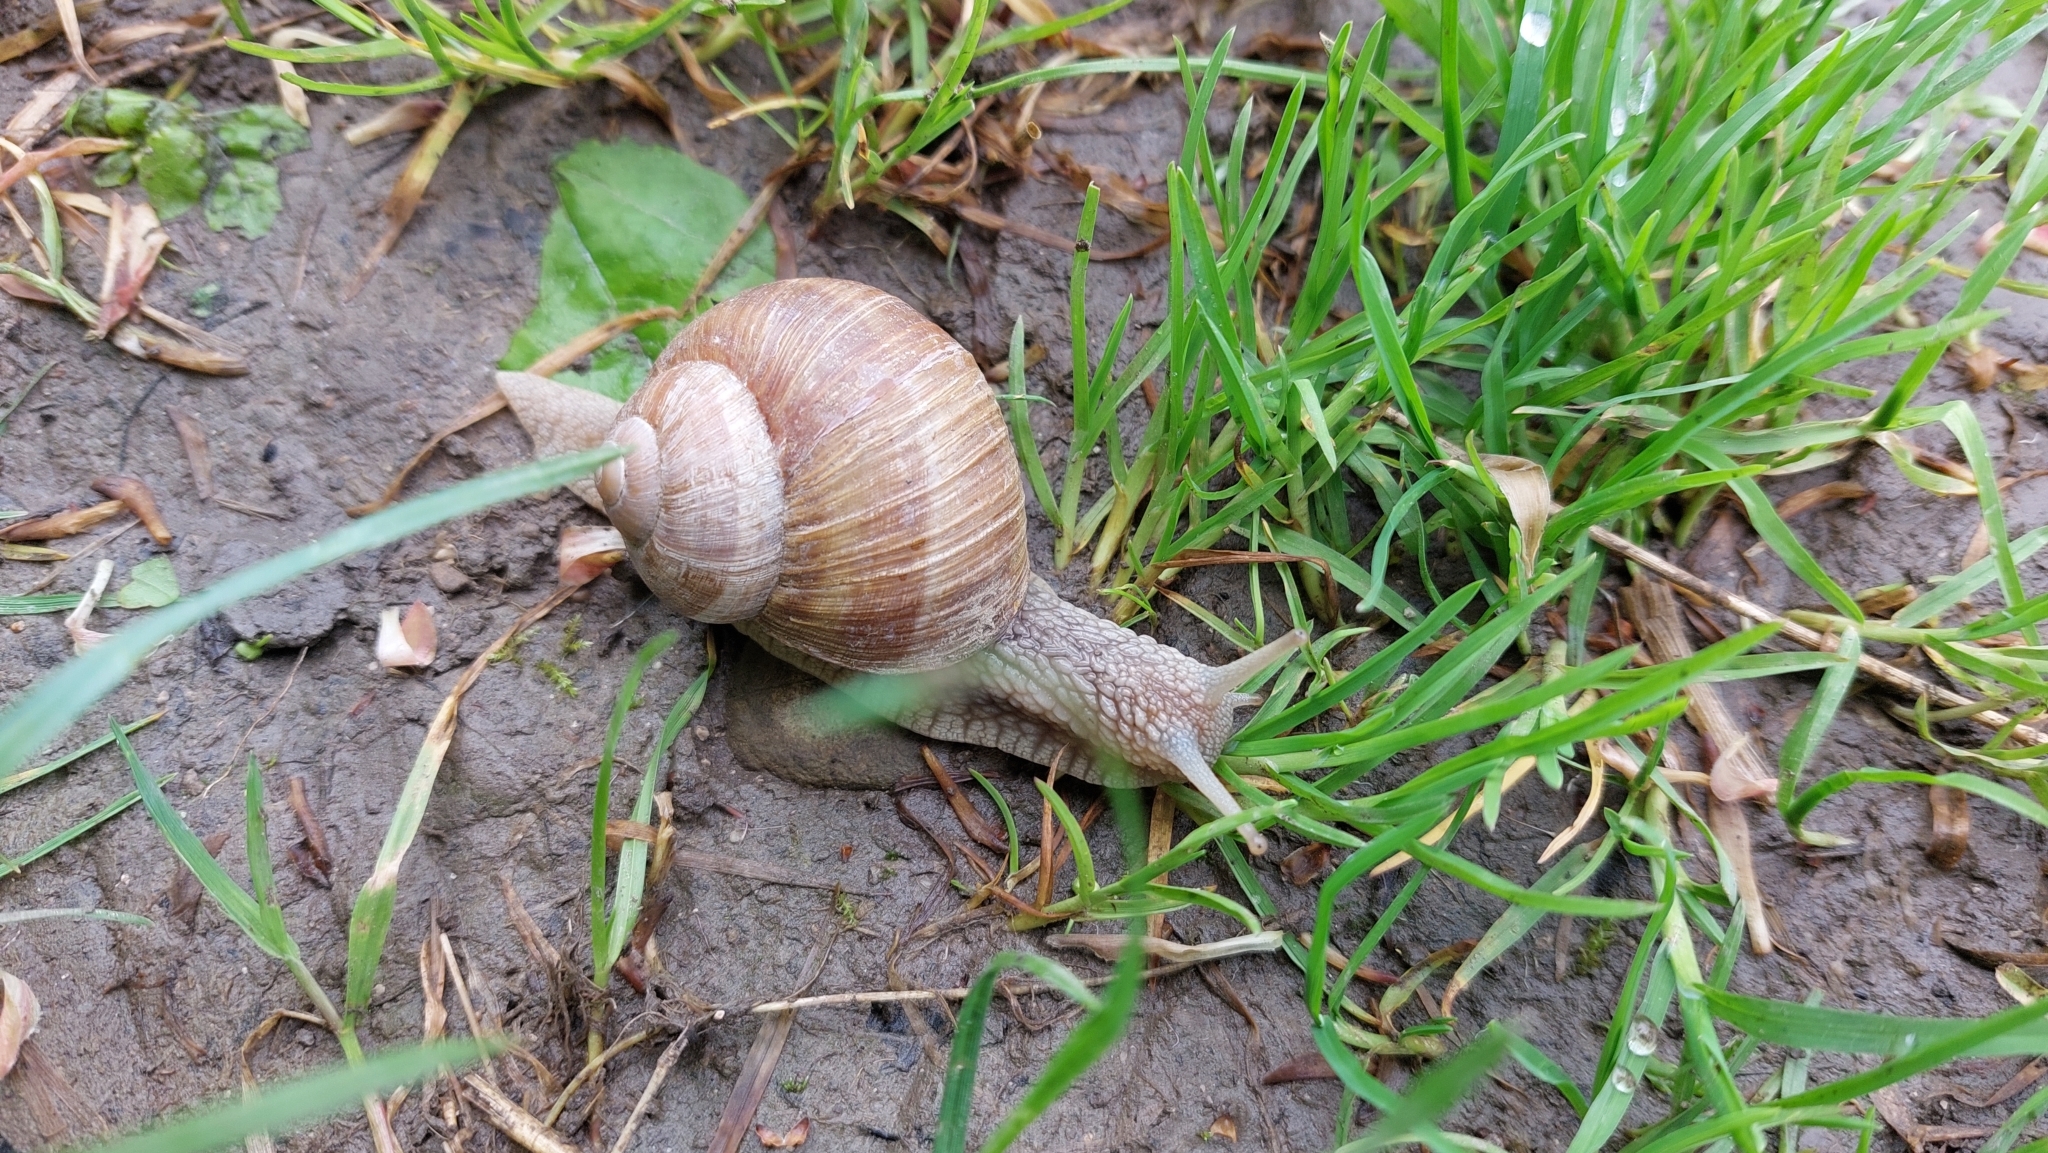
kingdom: Animalia
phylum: Mollusca
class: Gastropoda
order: Stylommatophora
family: Helicidae
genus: Helix
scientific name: Helix pomatia
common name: Roman snail
